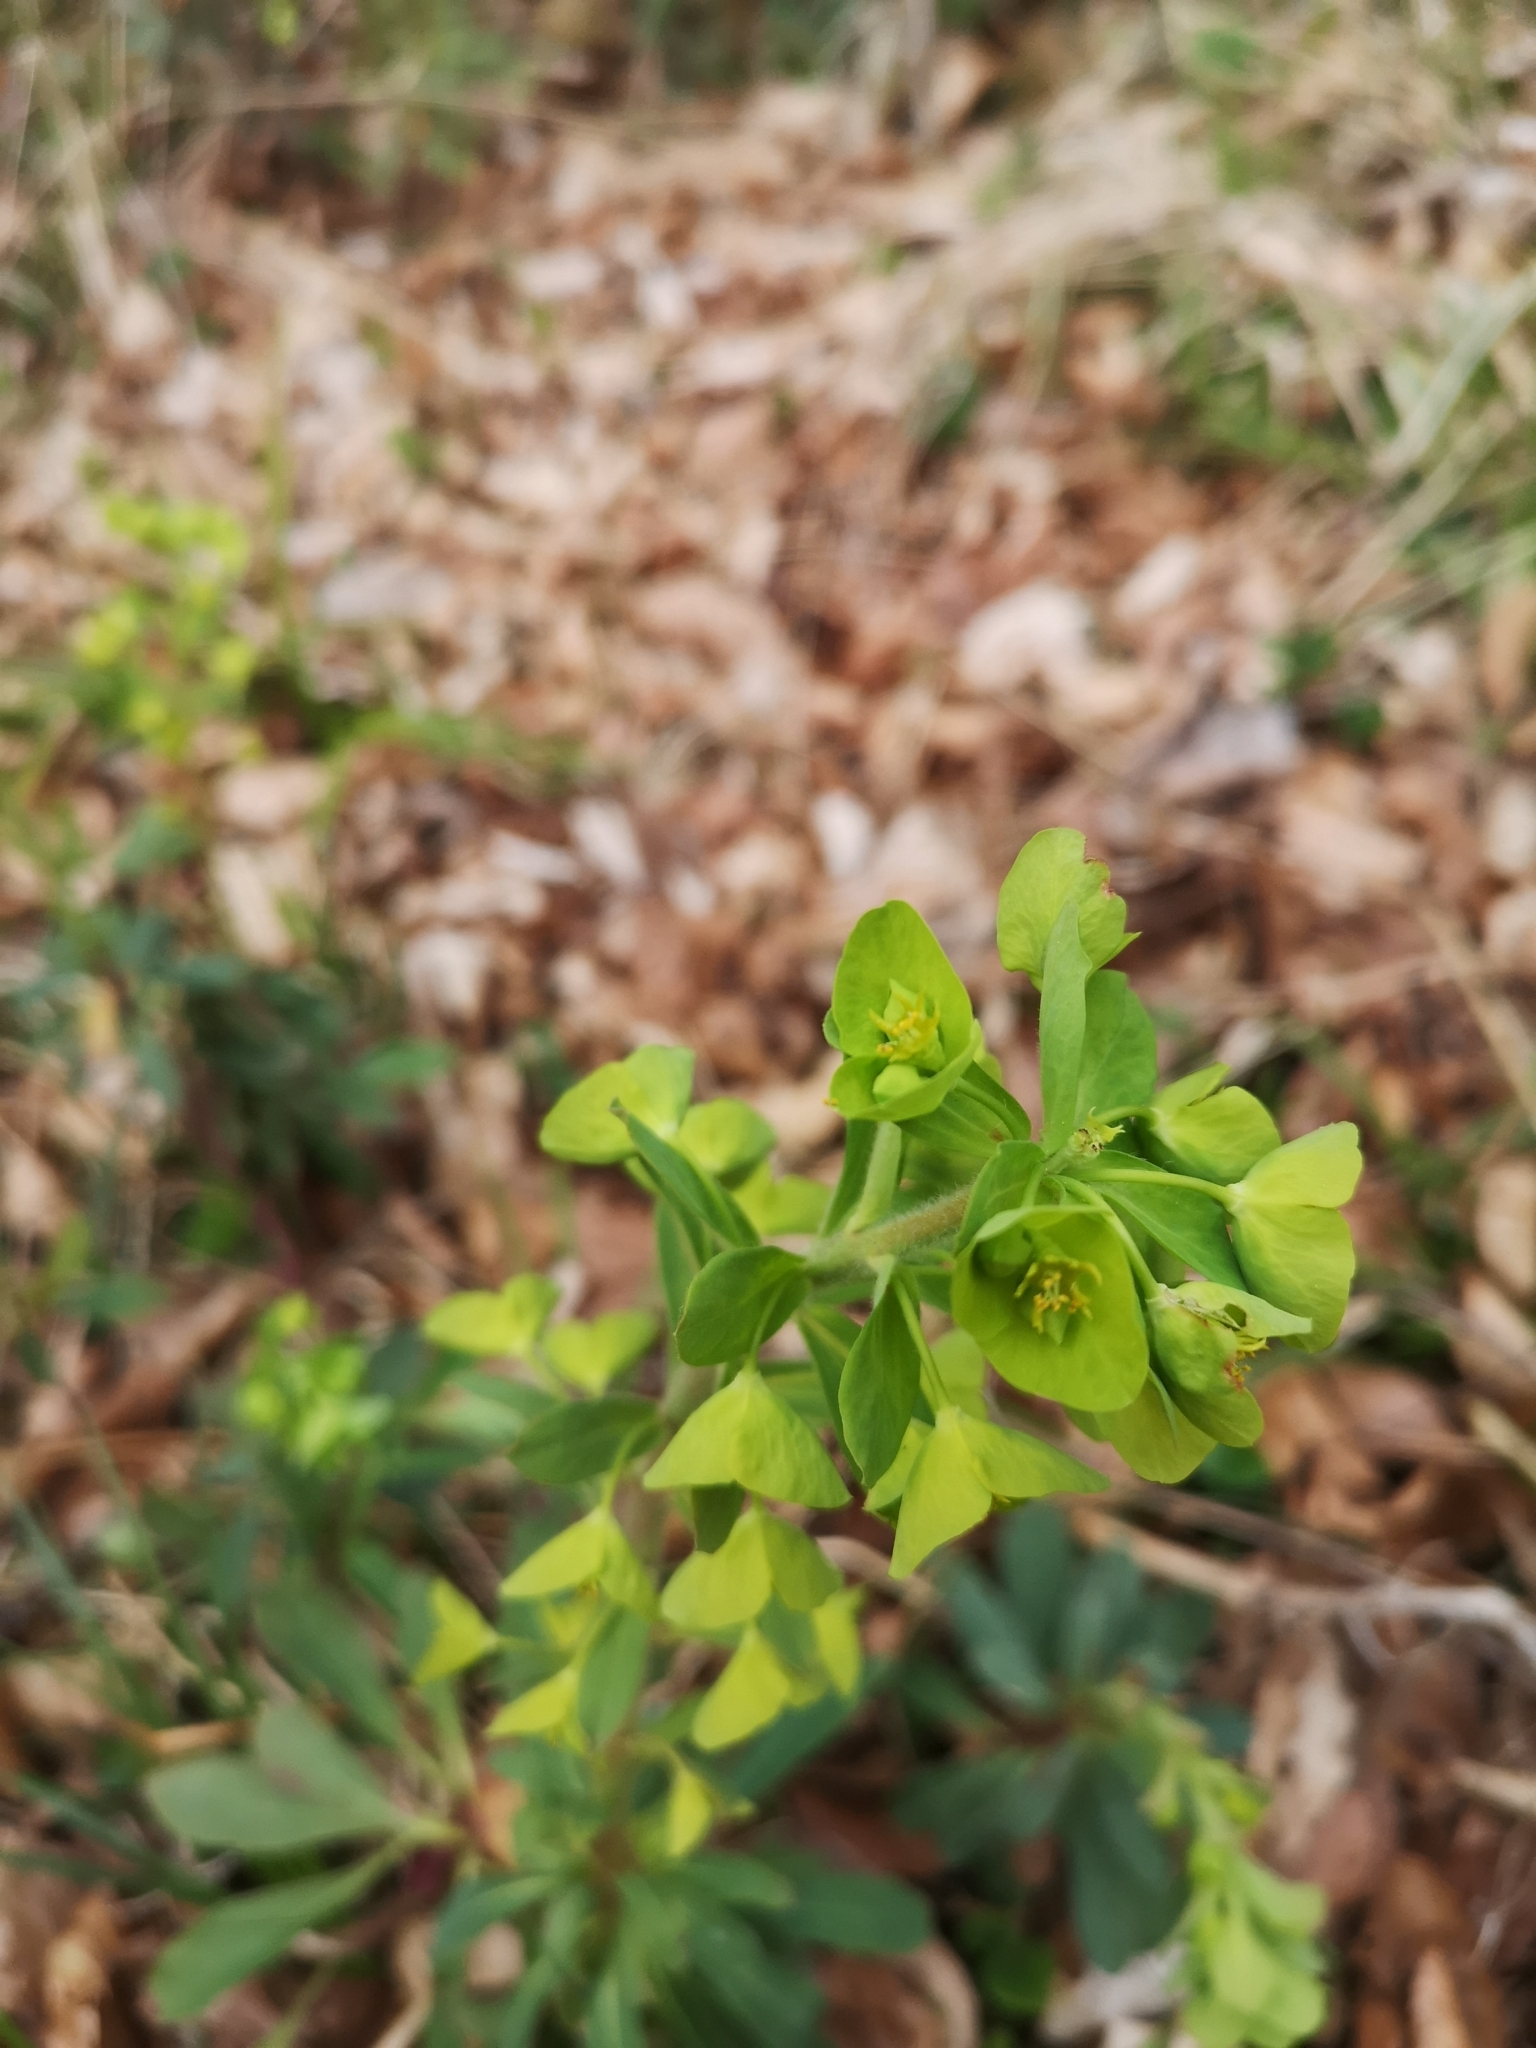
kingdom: Plantae
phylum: Tracheophyta
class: Magnoliopsida
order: Malpighiales
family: Euphorbiaceae
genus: Euphorbia
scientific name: Euphorbia amygdaloides
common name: Wood spurge
